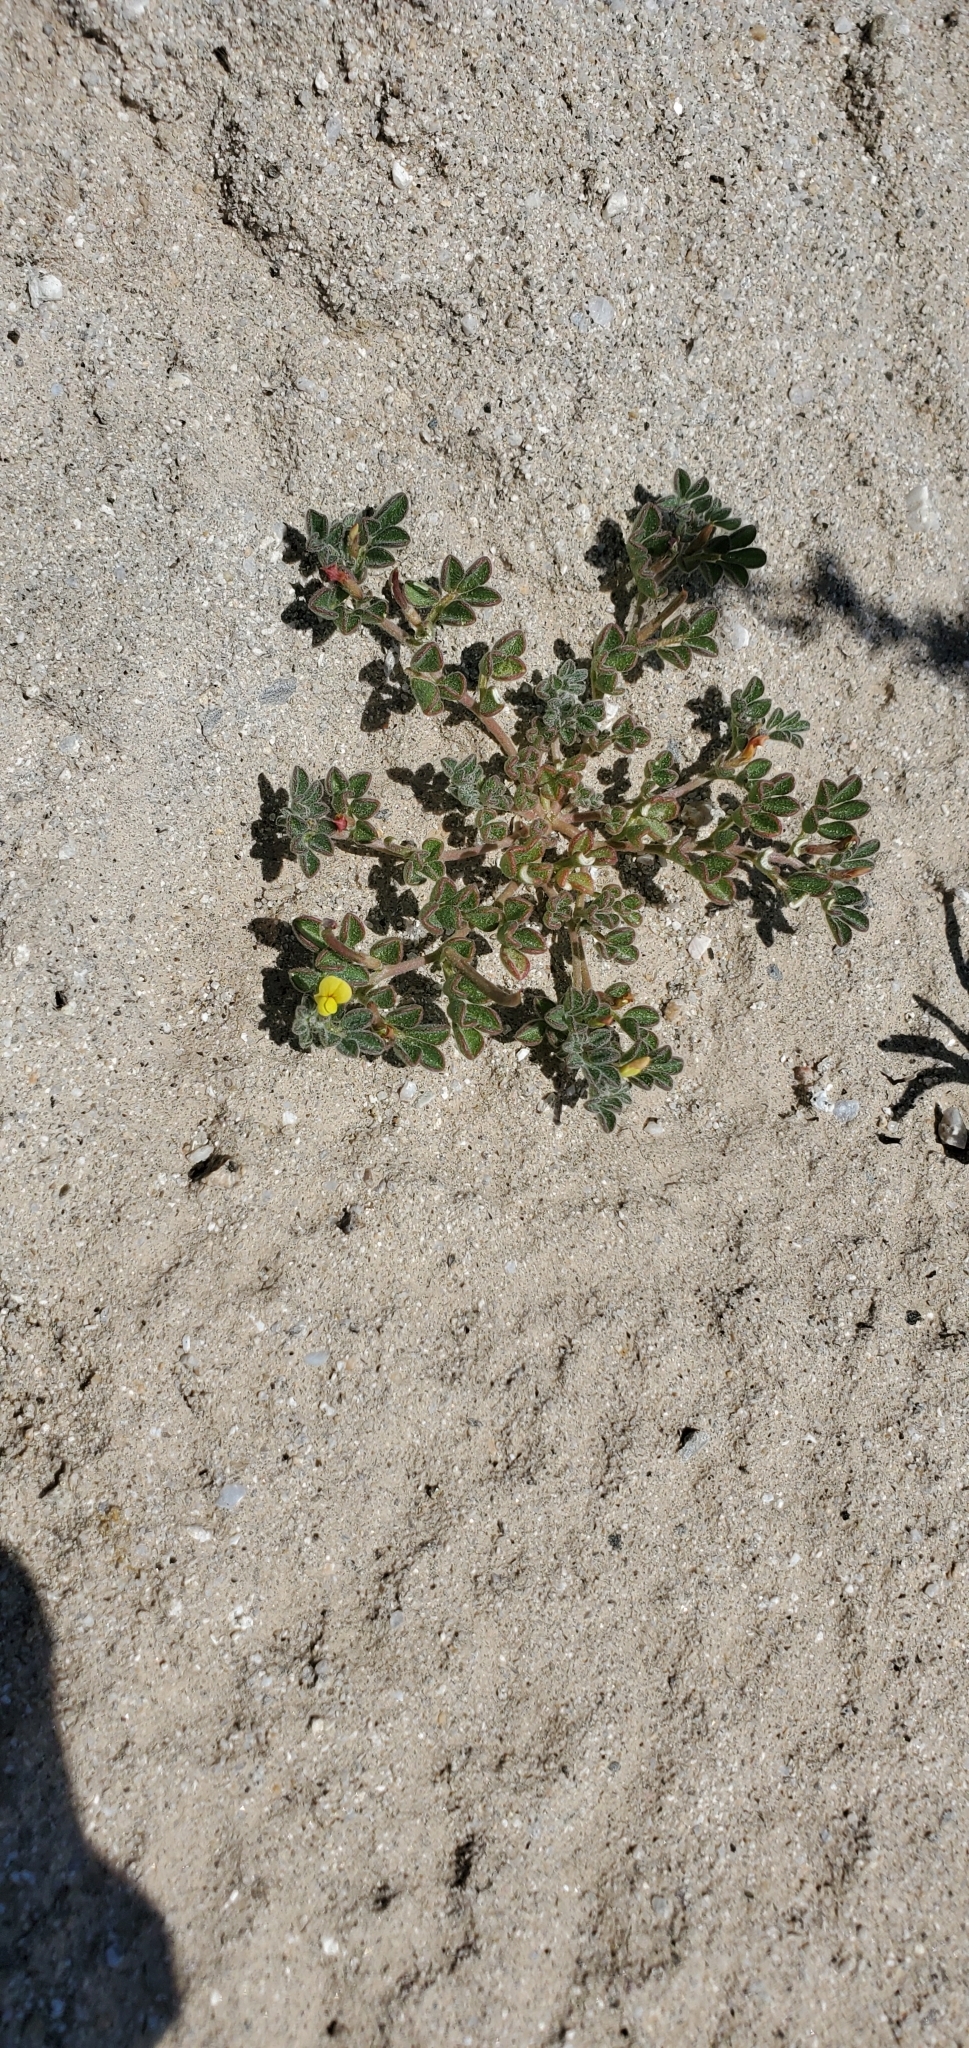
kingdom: Plantae
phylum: Tracheophyta
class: Magnoliopsida
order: Fabales
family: Fabaceae
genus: Acmispon
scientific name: Acmispon strigosus
